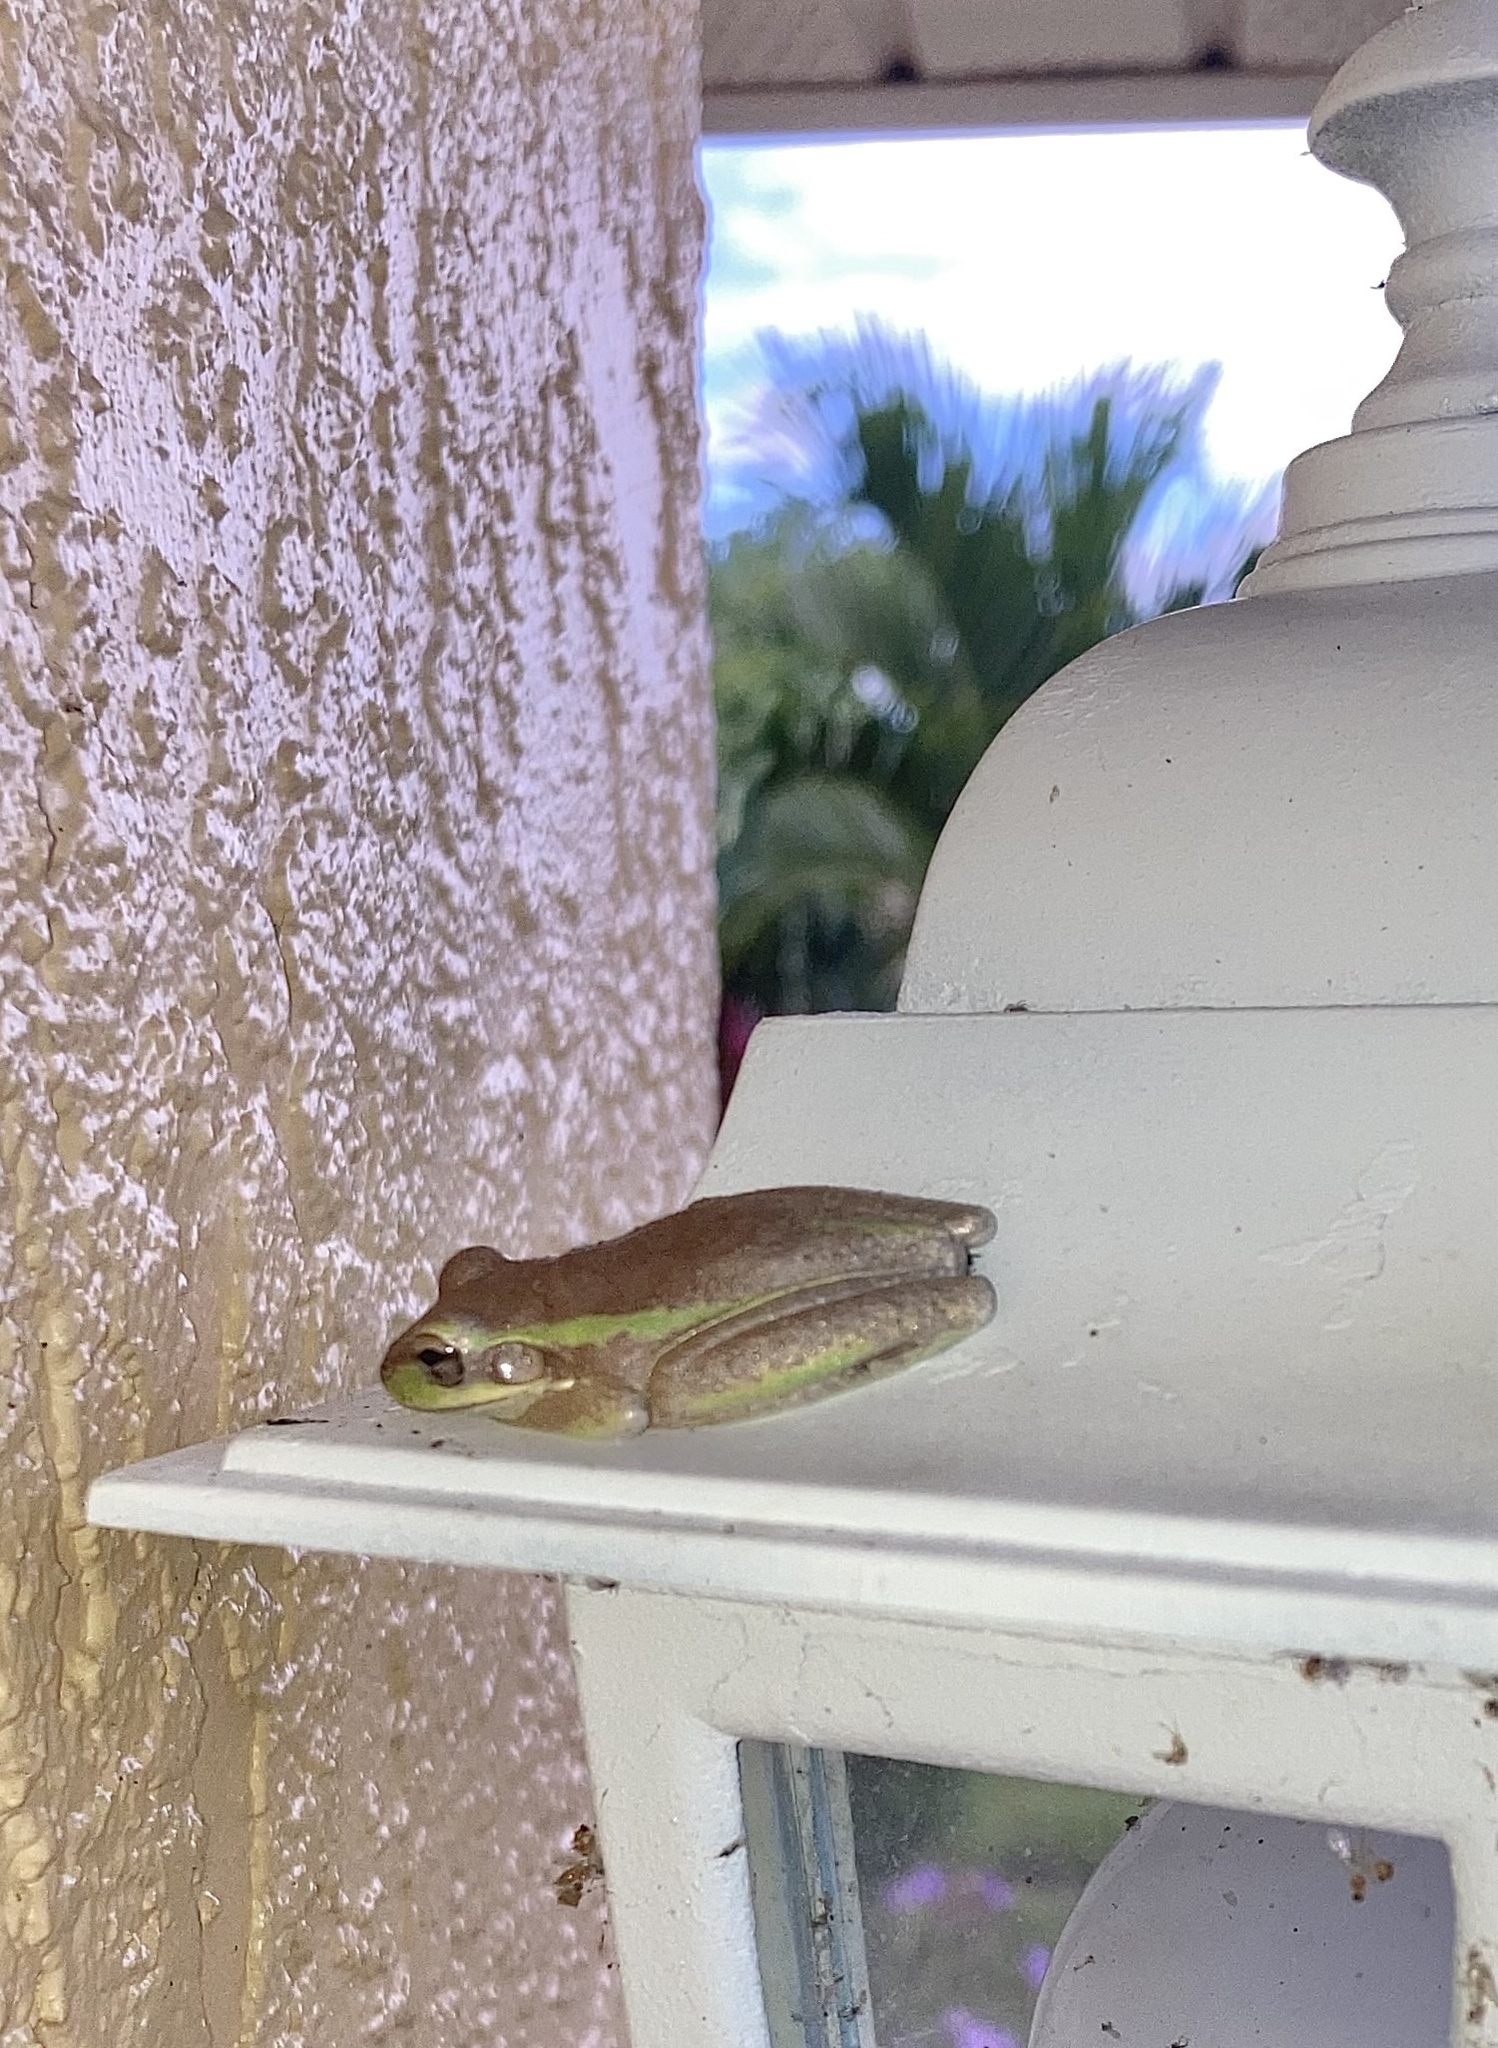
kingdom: Animalia
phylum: Chordata
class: Amphibia
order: Anura
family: Hylidae
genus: Osteopilus
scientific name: Osteopilus septentrionalis
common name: Cuban treefrog
